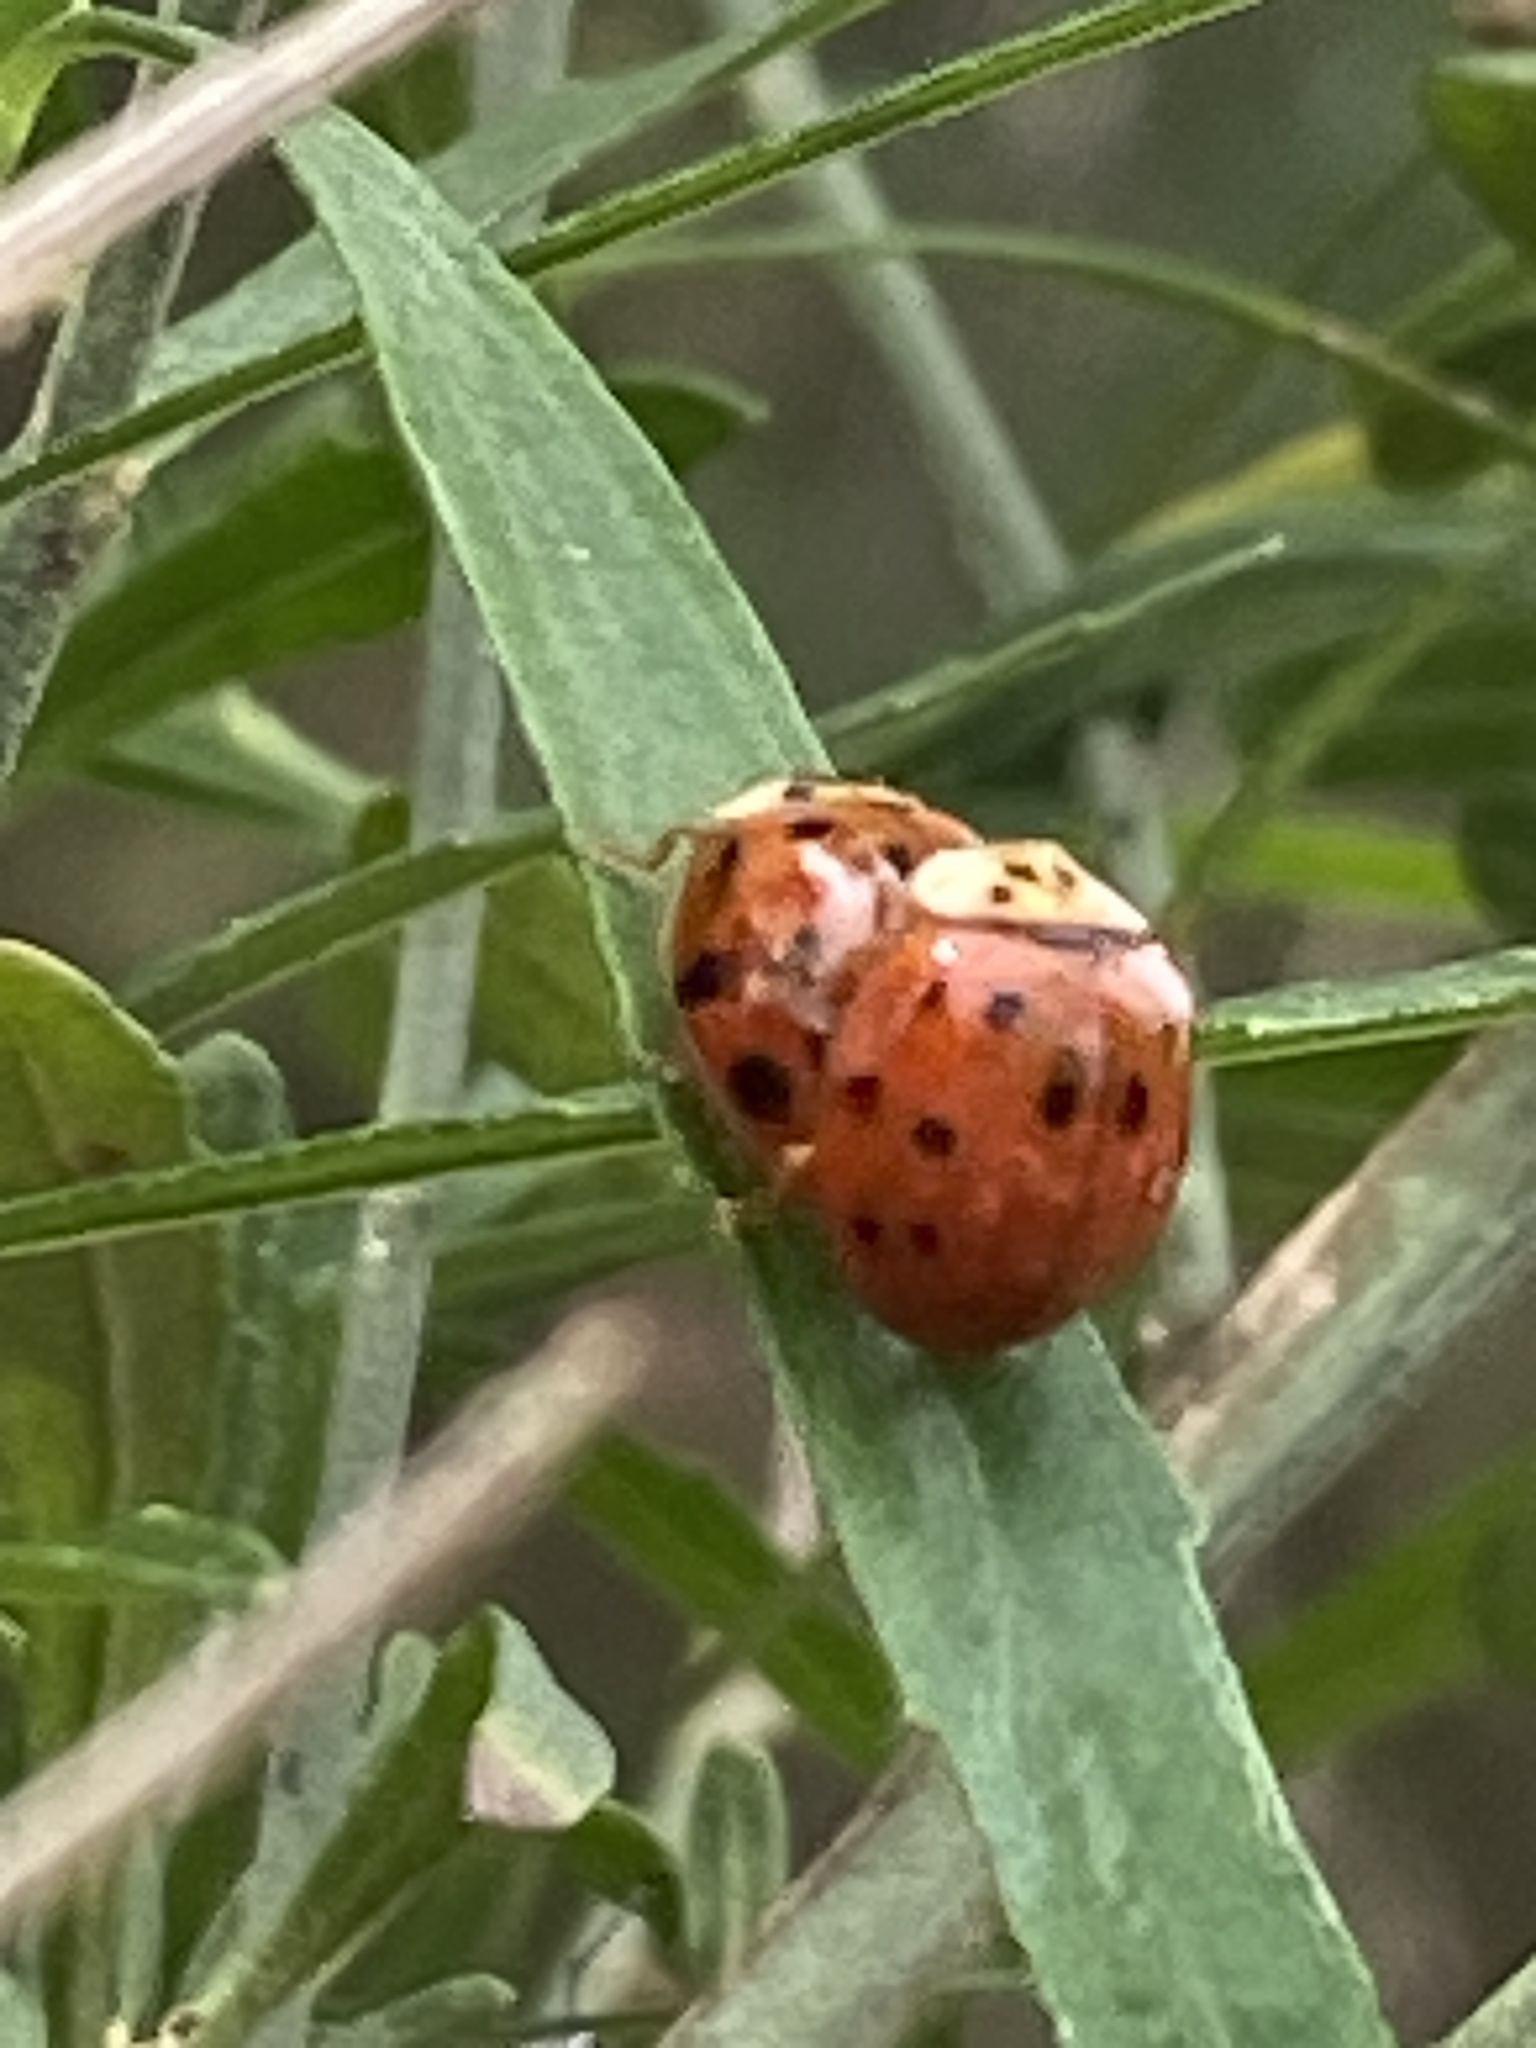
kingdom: Animalia
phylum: Arthropoda
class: Insecta
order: Coleoptera
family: Coccinellidae
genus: Harmonia
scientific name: Harmonia axyridis
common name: Harlequin ladybird
